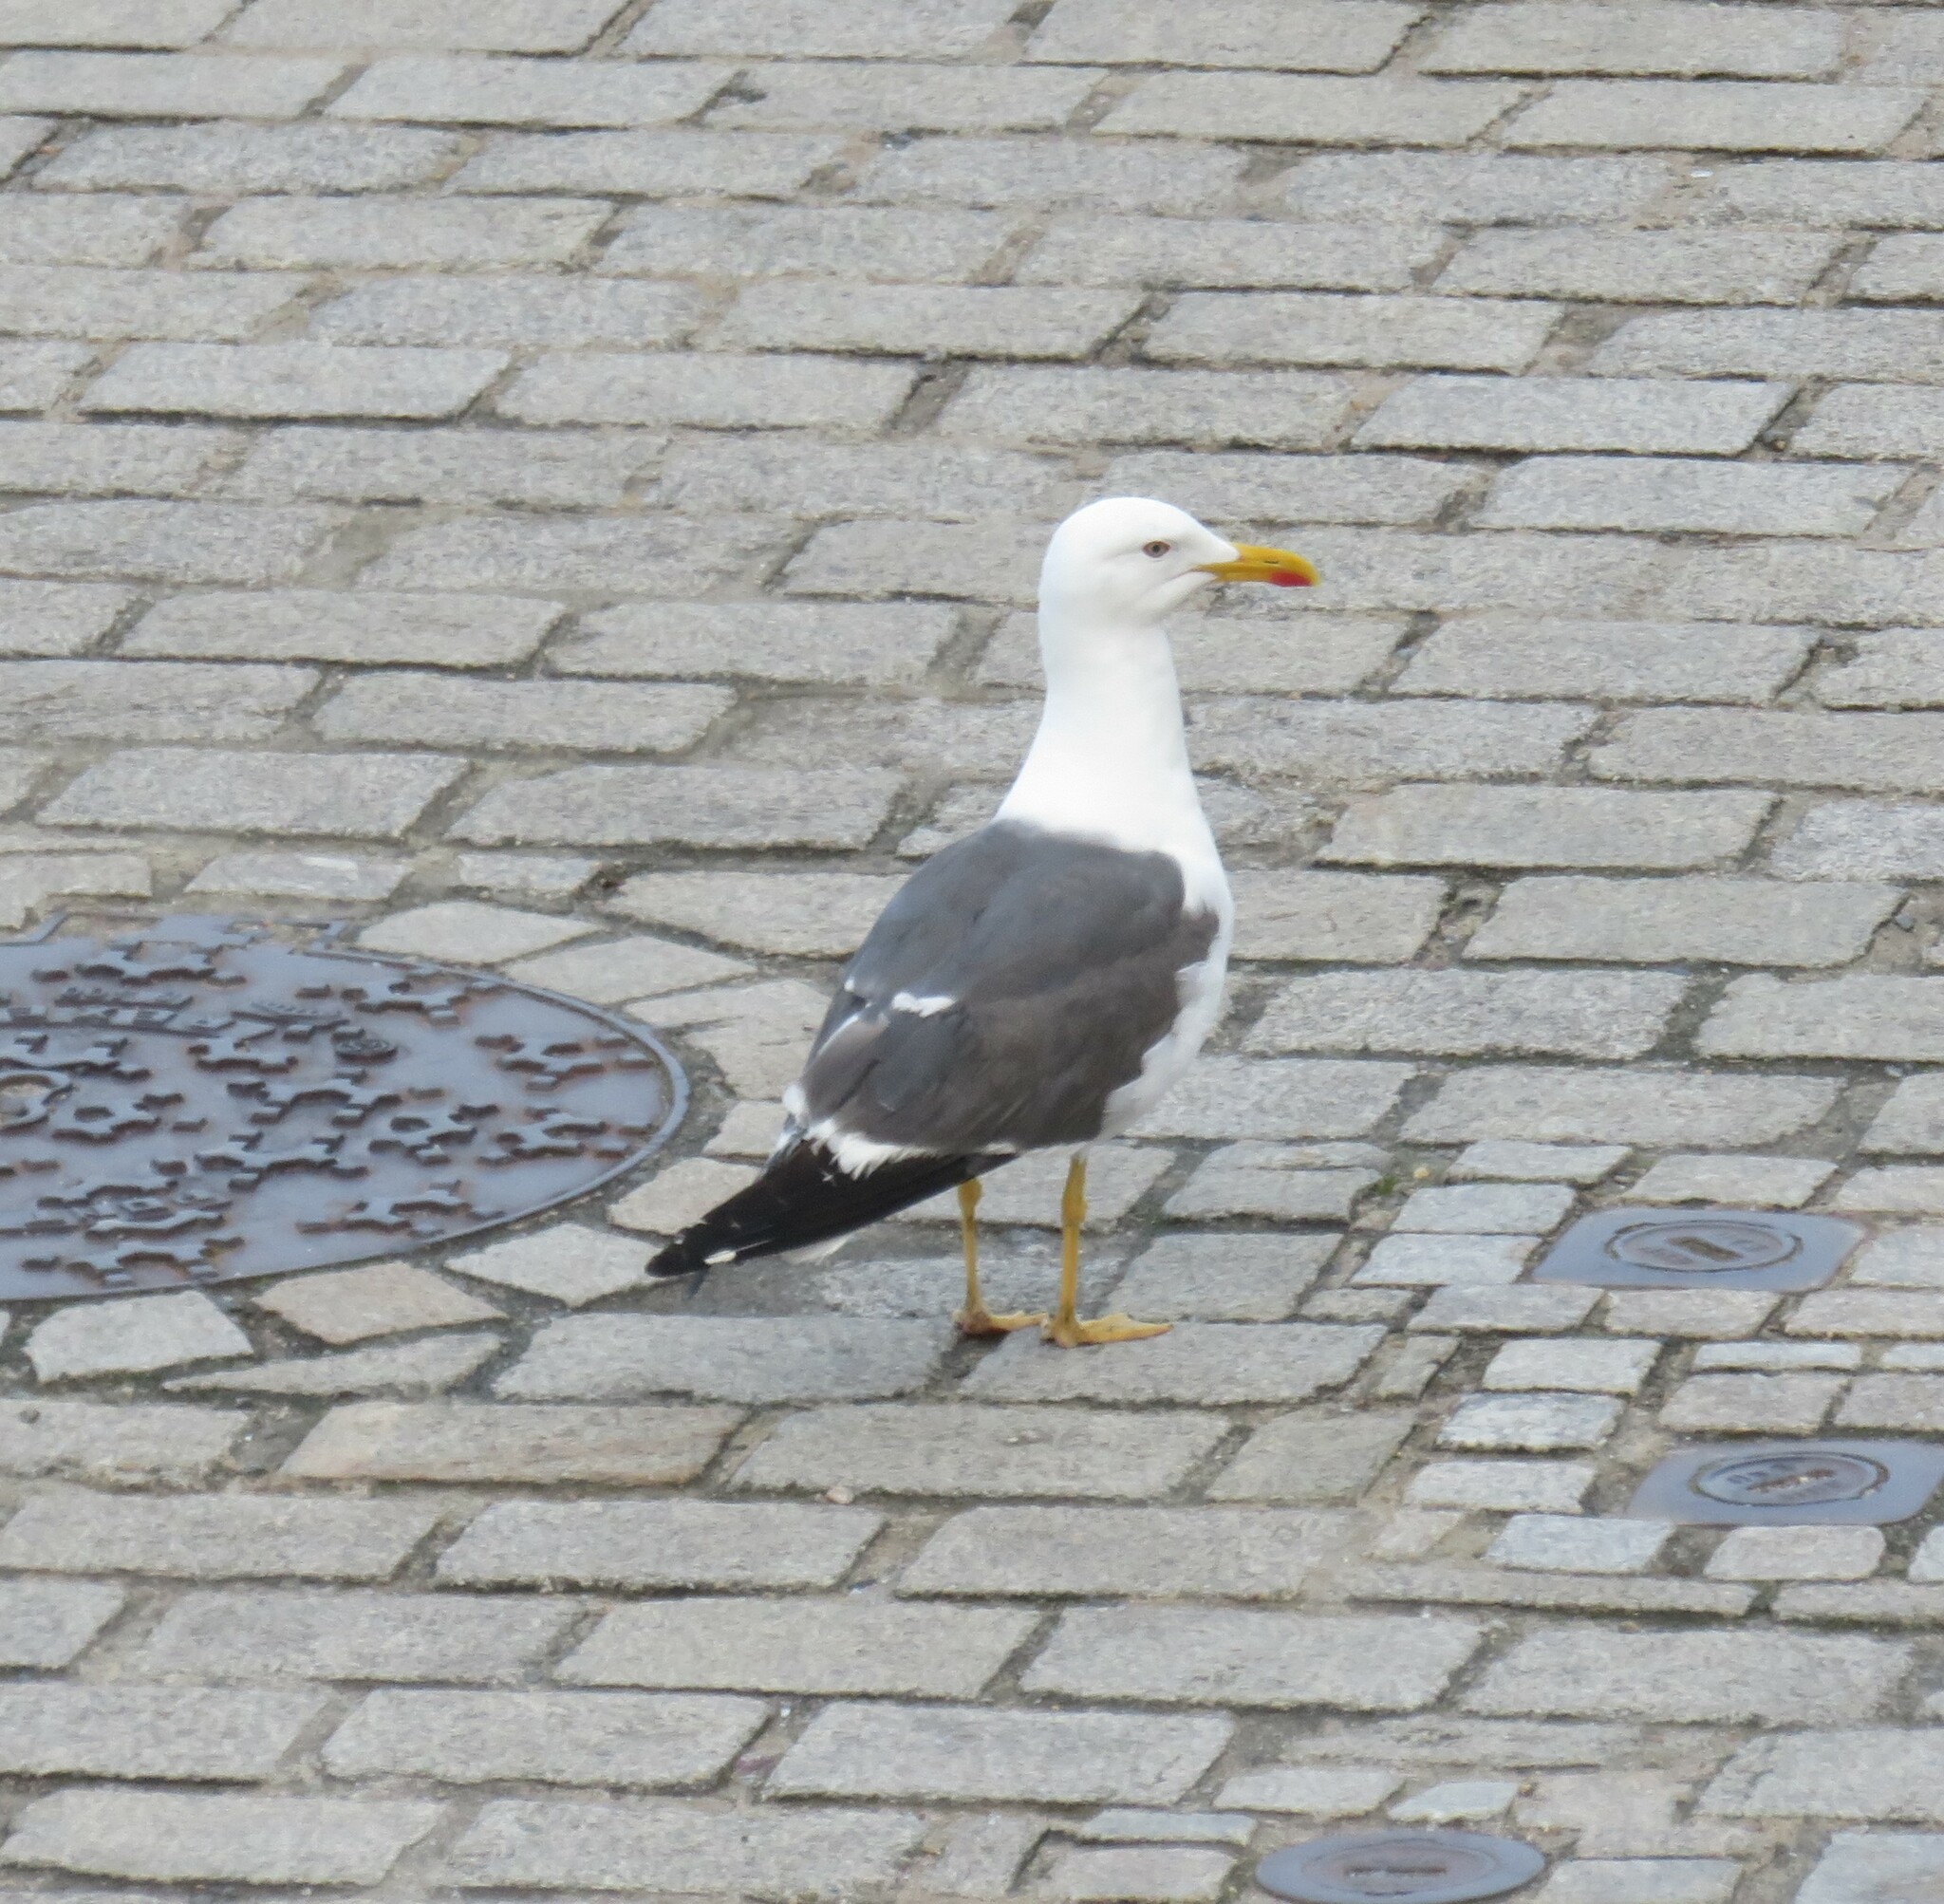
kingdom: Animalia
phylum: Chordata
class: Aves
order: Charadriiformes
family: Laridae
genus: Larus
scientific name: Larus fuscus
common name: Lesser black-backed gull
